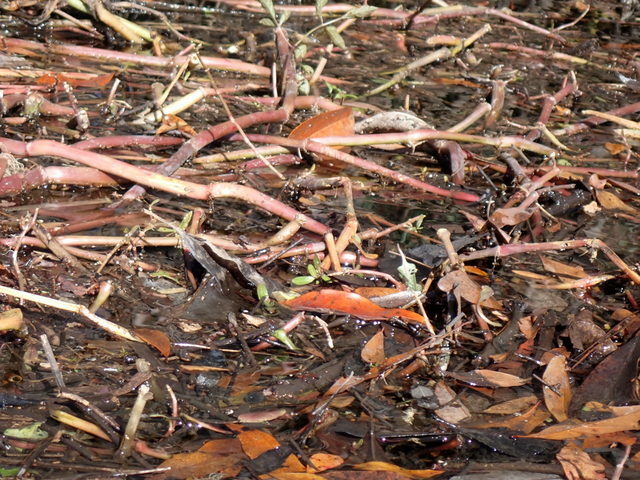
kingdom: Plantae
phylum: Tracheophyta
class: Magnoliopsida
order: Caryophyllales
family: Amaranthaceae
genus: Alternanthera
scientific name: Alternanthera philoxeroides
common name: Alligatorweed
